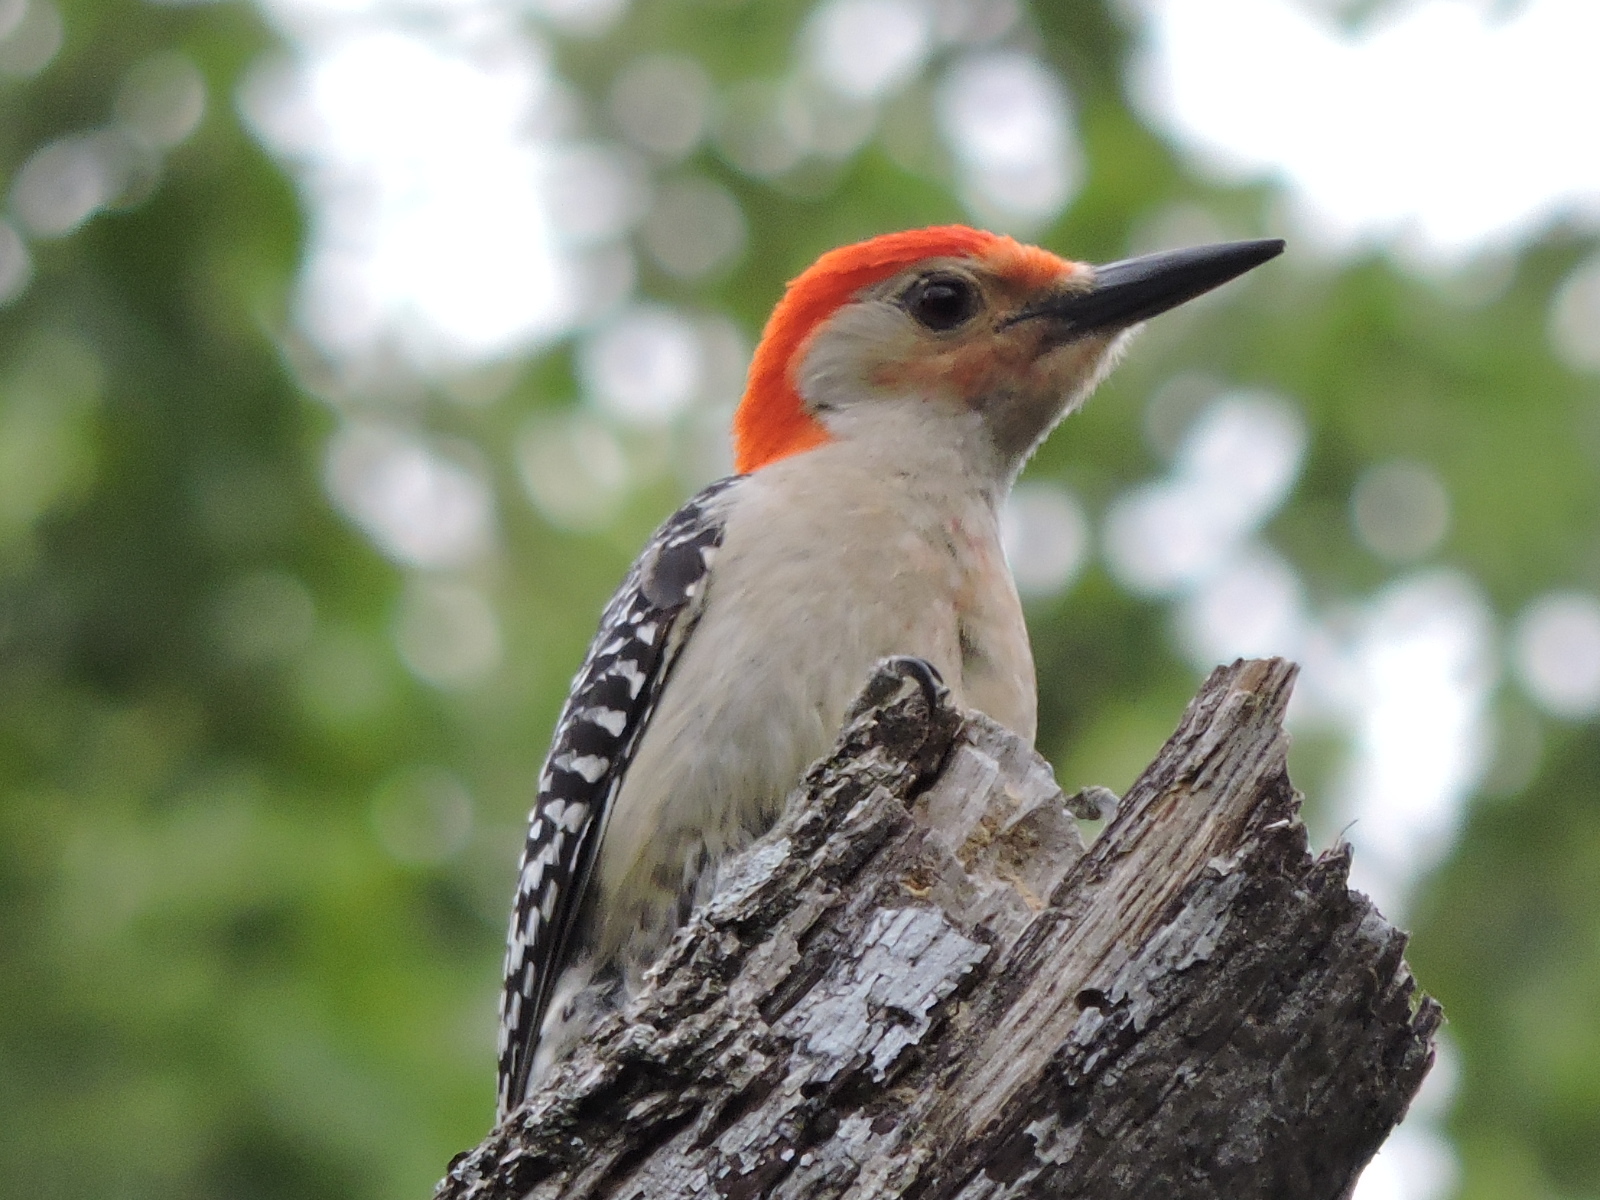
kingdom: Animalia
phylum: Chordata
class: Aves
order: Piciformes
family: Picidae
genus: Melanerpes
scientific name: Melanerpes carolinus
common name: Red-bellied woodpecker
